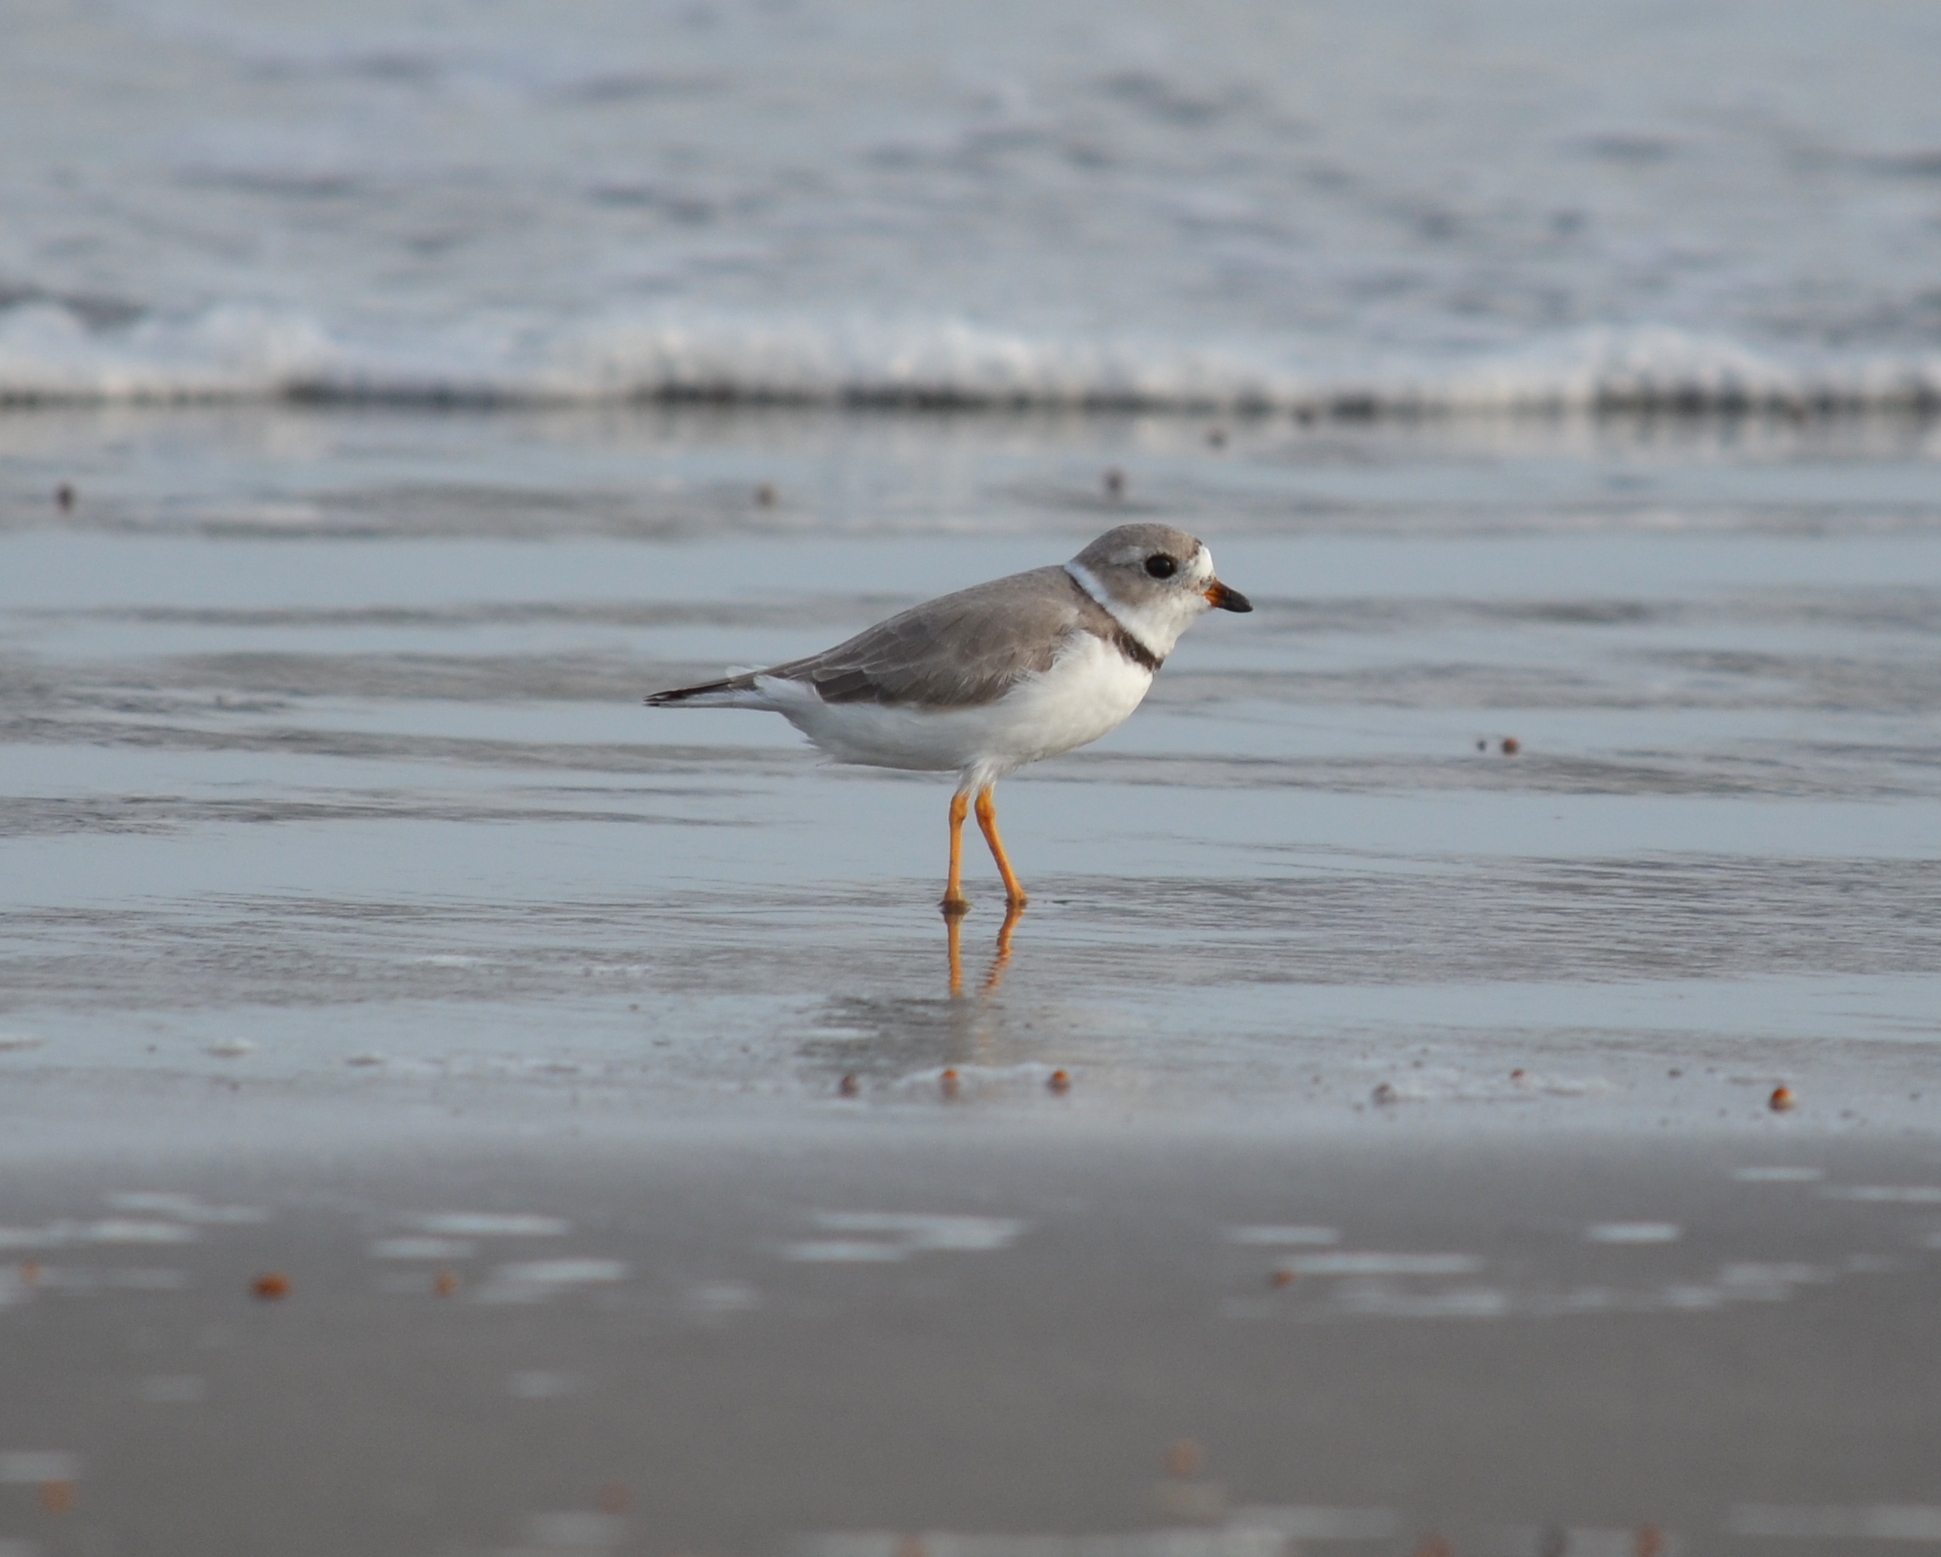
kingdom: Animalia
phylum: Chordata
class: Aves
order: Charadriiformes
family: Charadriidae
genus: Charadrius
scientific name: Charadrius melodus
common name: Piping plover
